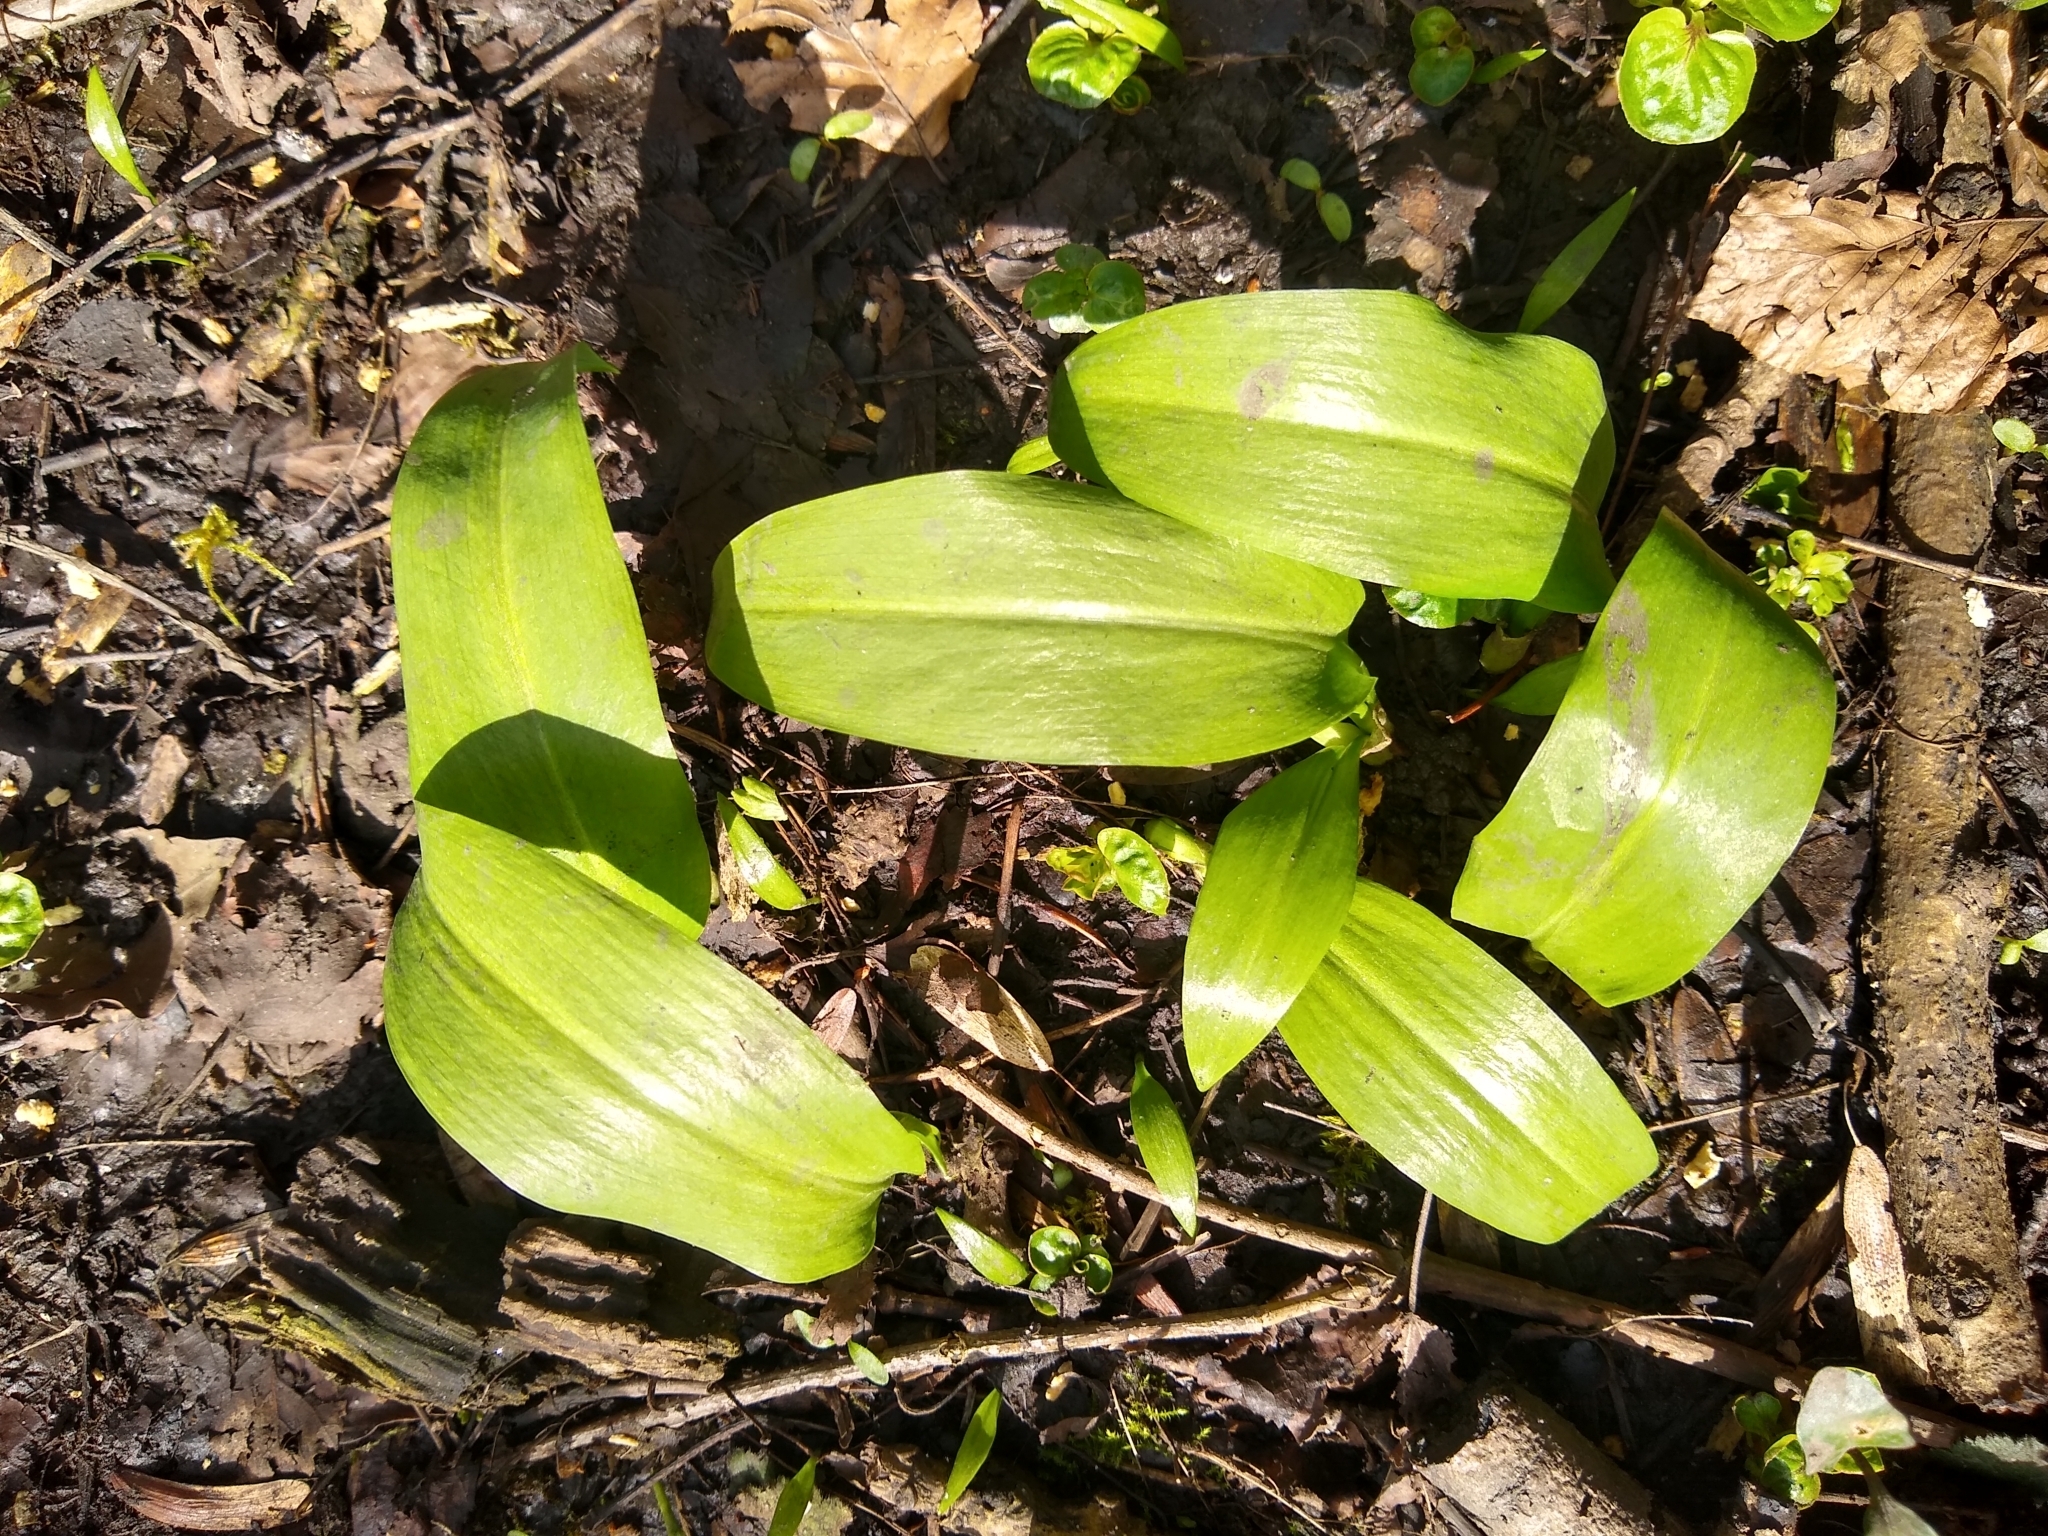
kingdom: Plantae
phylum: Tracheophyta
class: Liliopsida
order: Asparagales
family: Amaryllidaceae
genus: Allium
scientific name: Allium ursinum
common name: Ramsons
